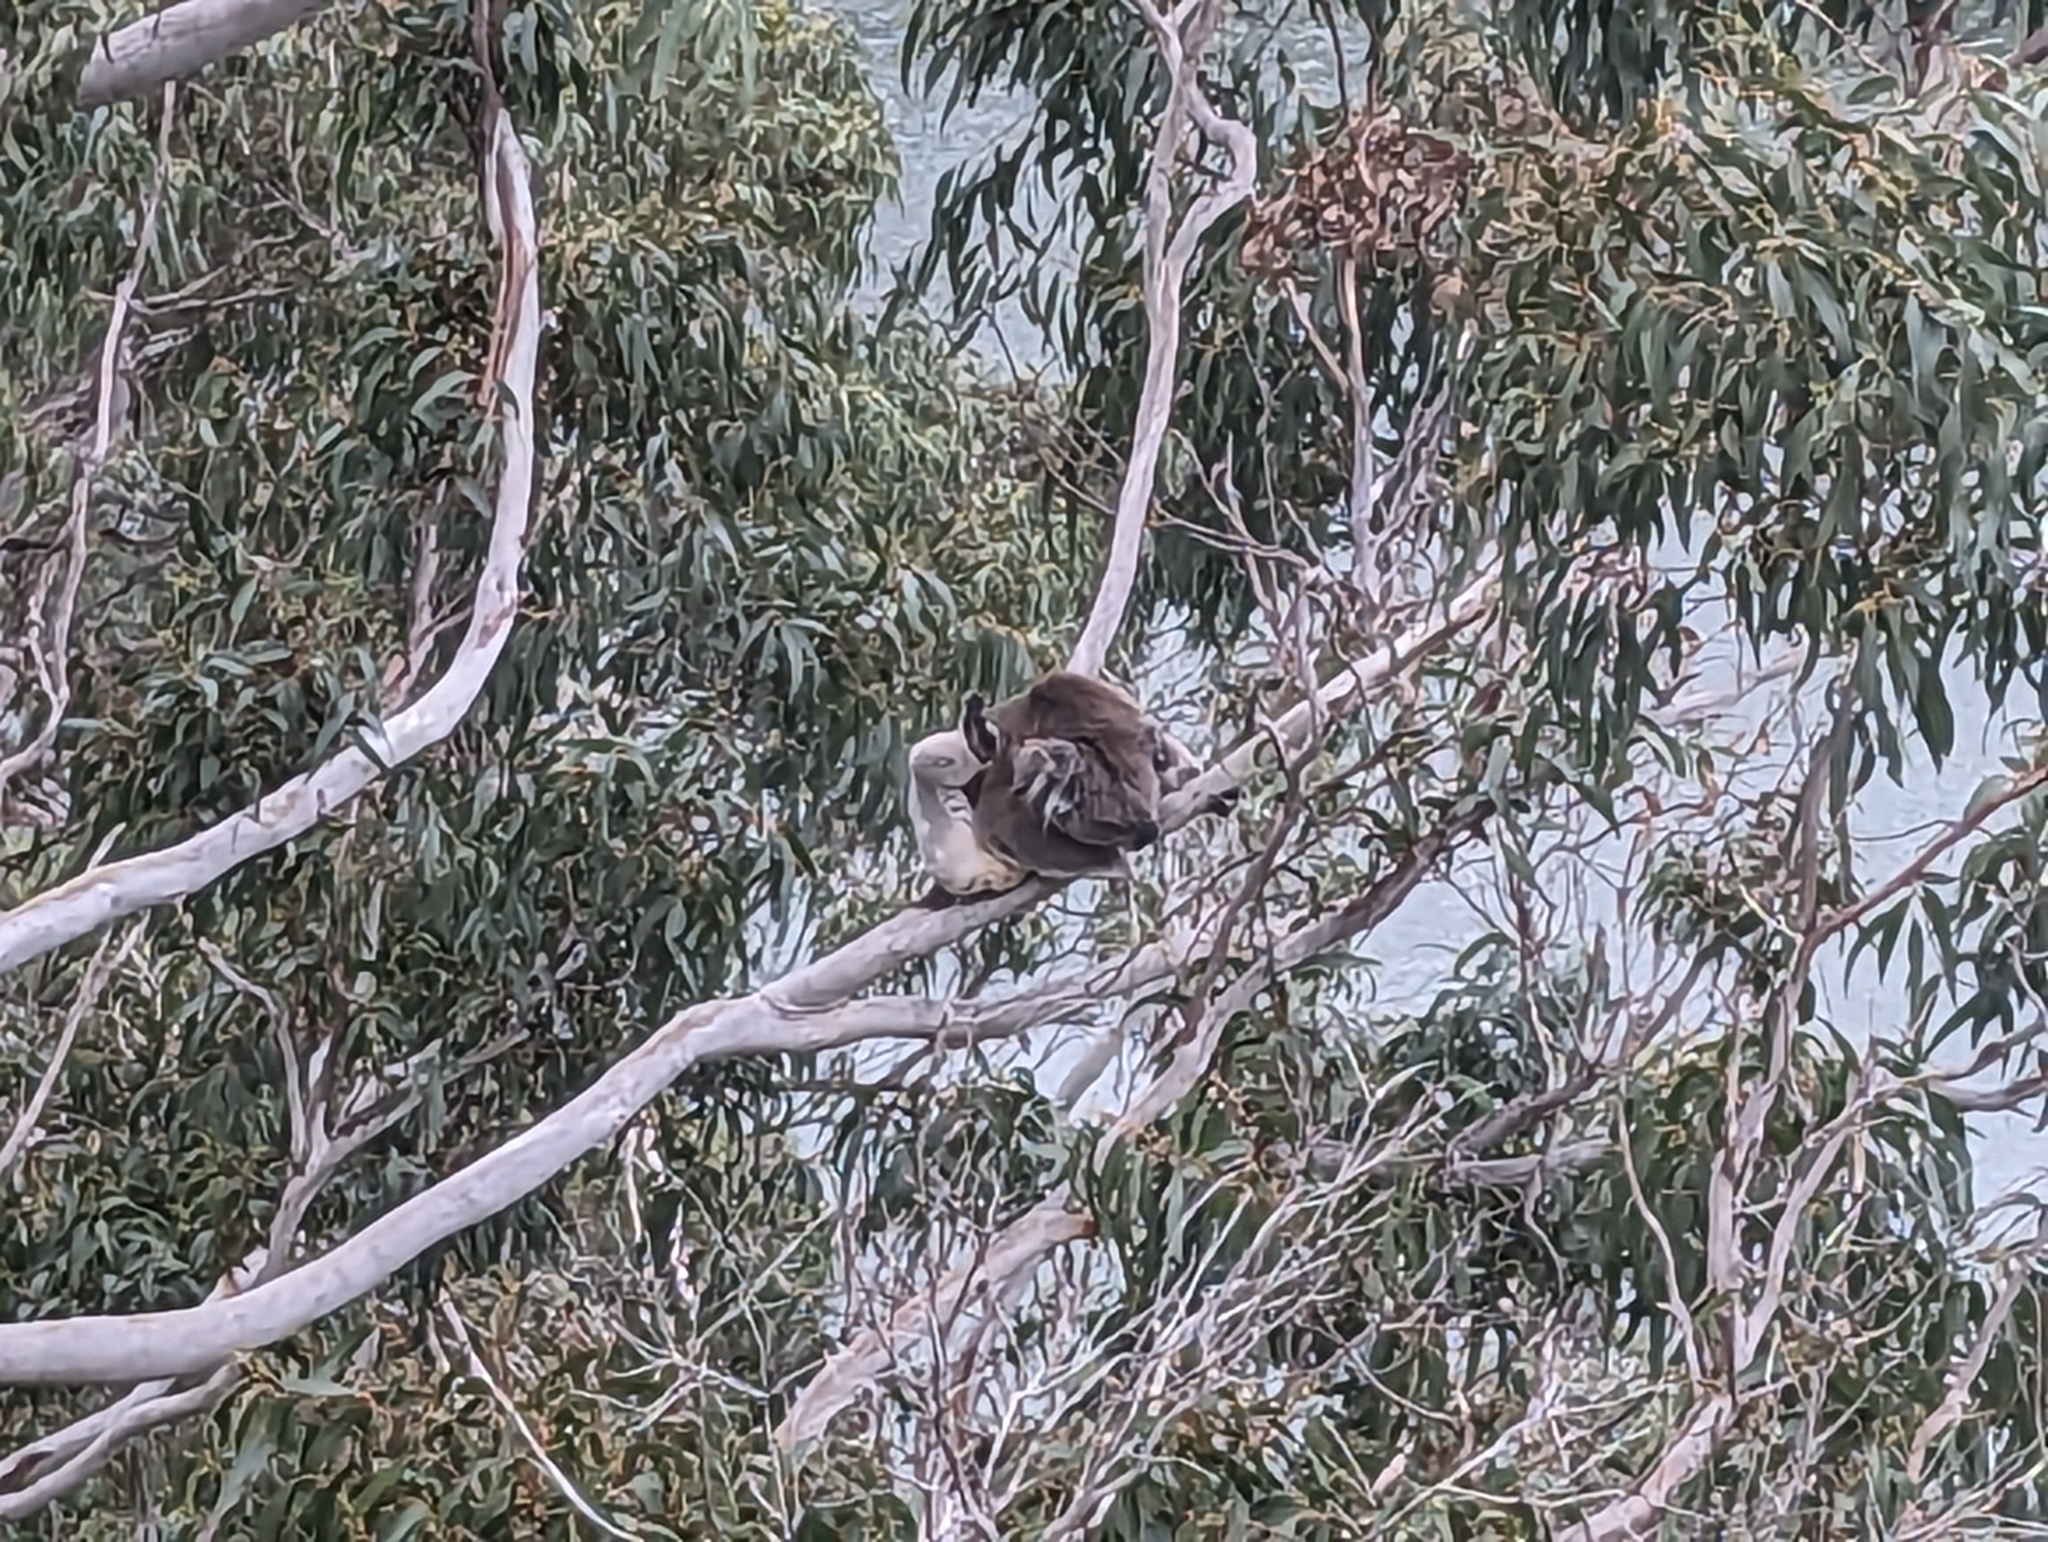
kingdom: Animalia
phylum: Chordata
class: Mammalia
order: Diprotodontia
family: Phascolarctidae
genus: Phascolarctos
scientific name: Phascolarctos cinereus
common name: Koala
